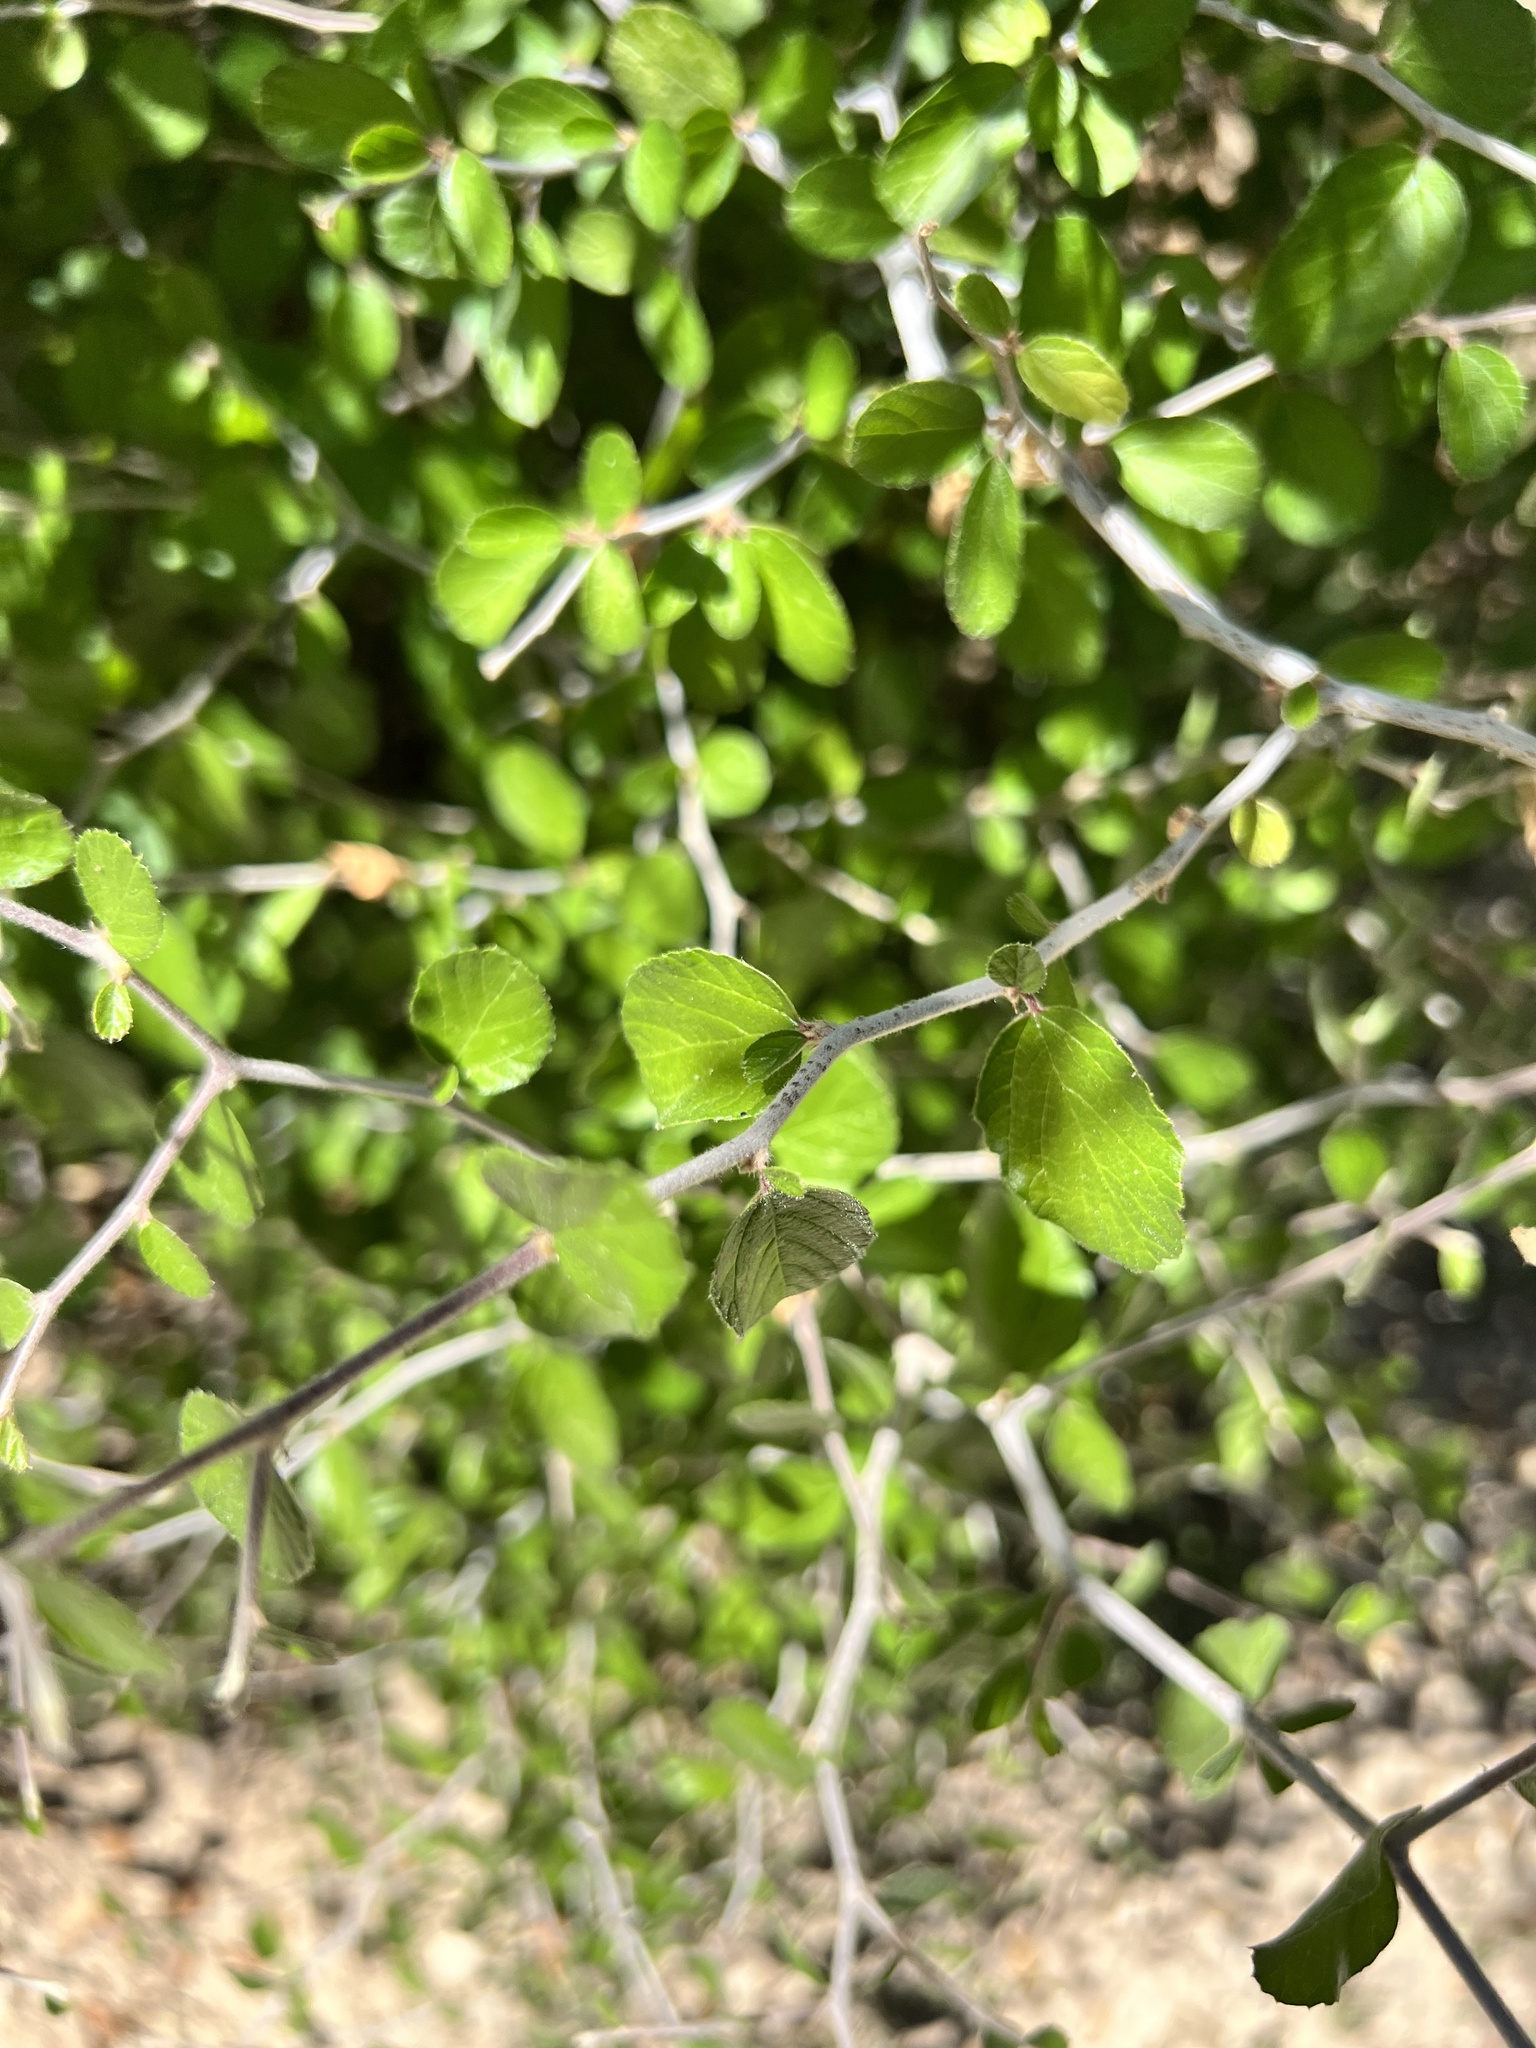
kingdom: Plantae
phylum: Tracheophyta
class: Magnoliopsida
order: Rosales
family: Rhamnaceae
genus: Colubrina
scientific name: Colubrina texensis
